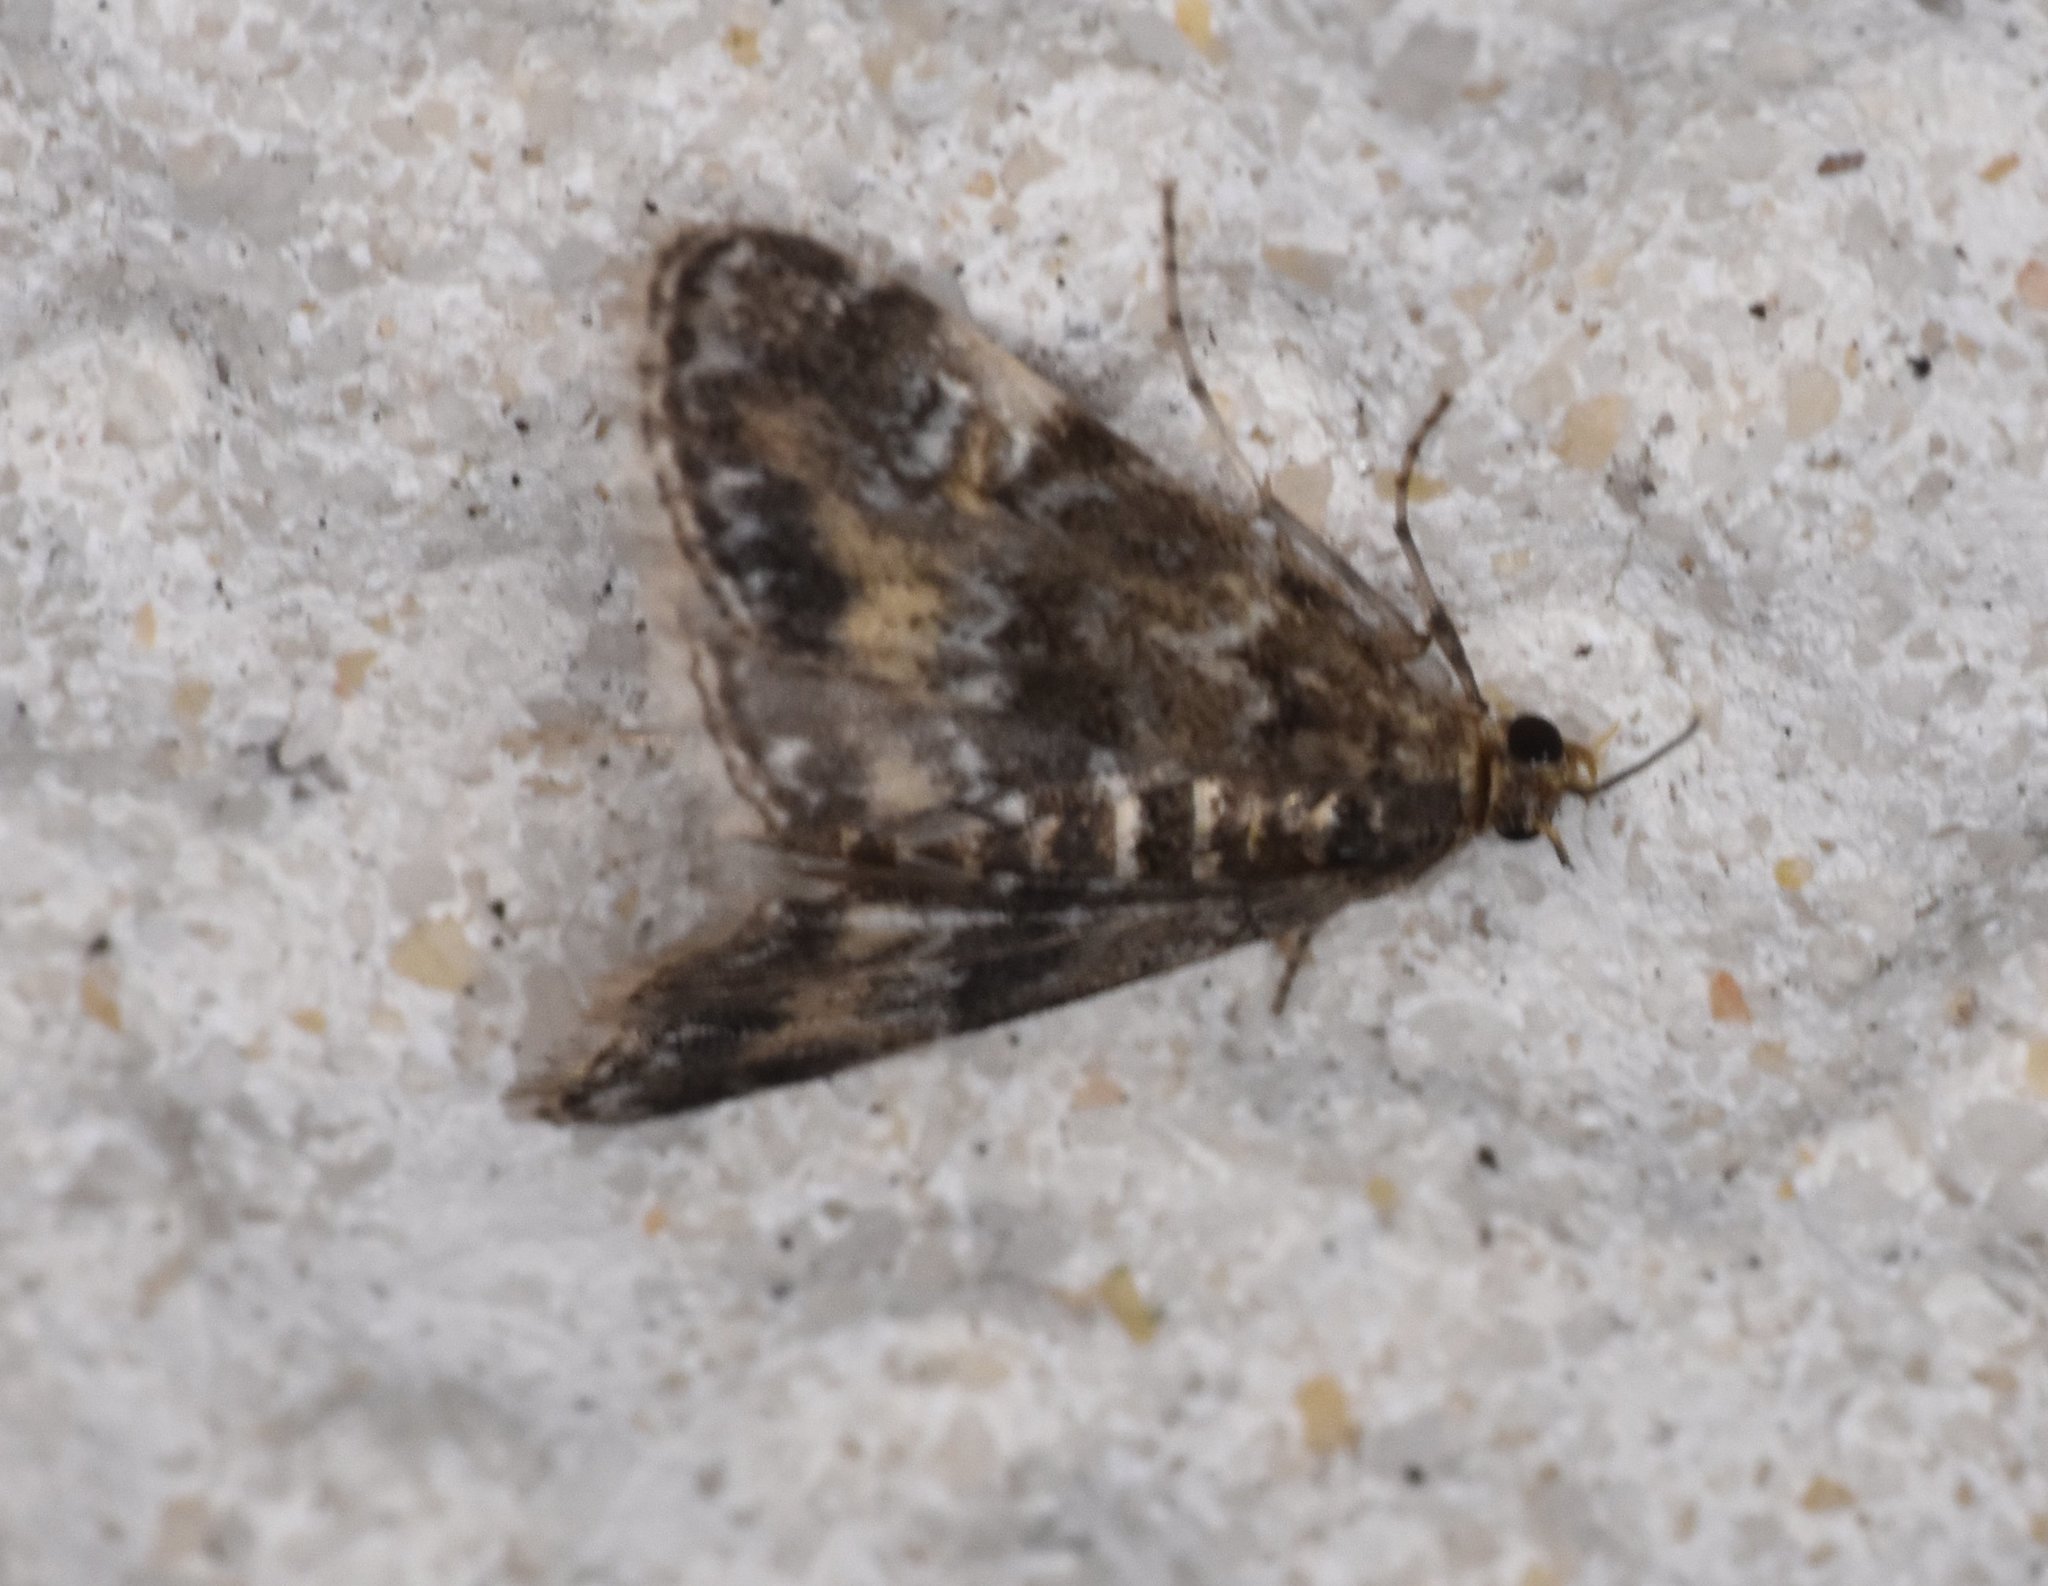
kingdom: Animalia
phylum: Arthropoda
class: Insecta
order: Lepidoptera
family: Crambidae
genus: Elophila
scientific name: Elophila obliteralis
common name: Waterlily leafcutter moth
